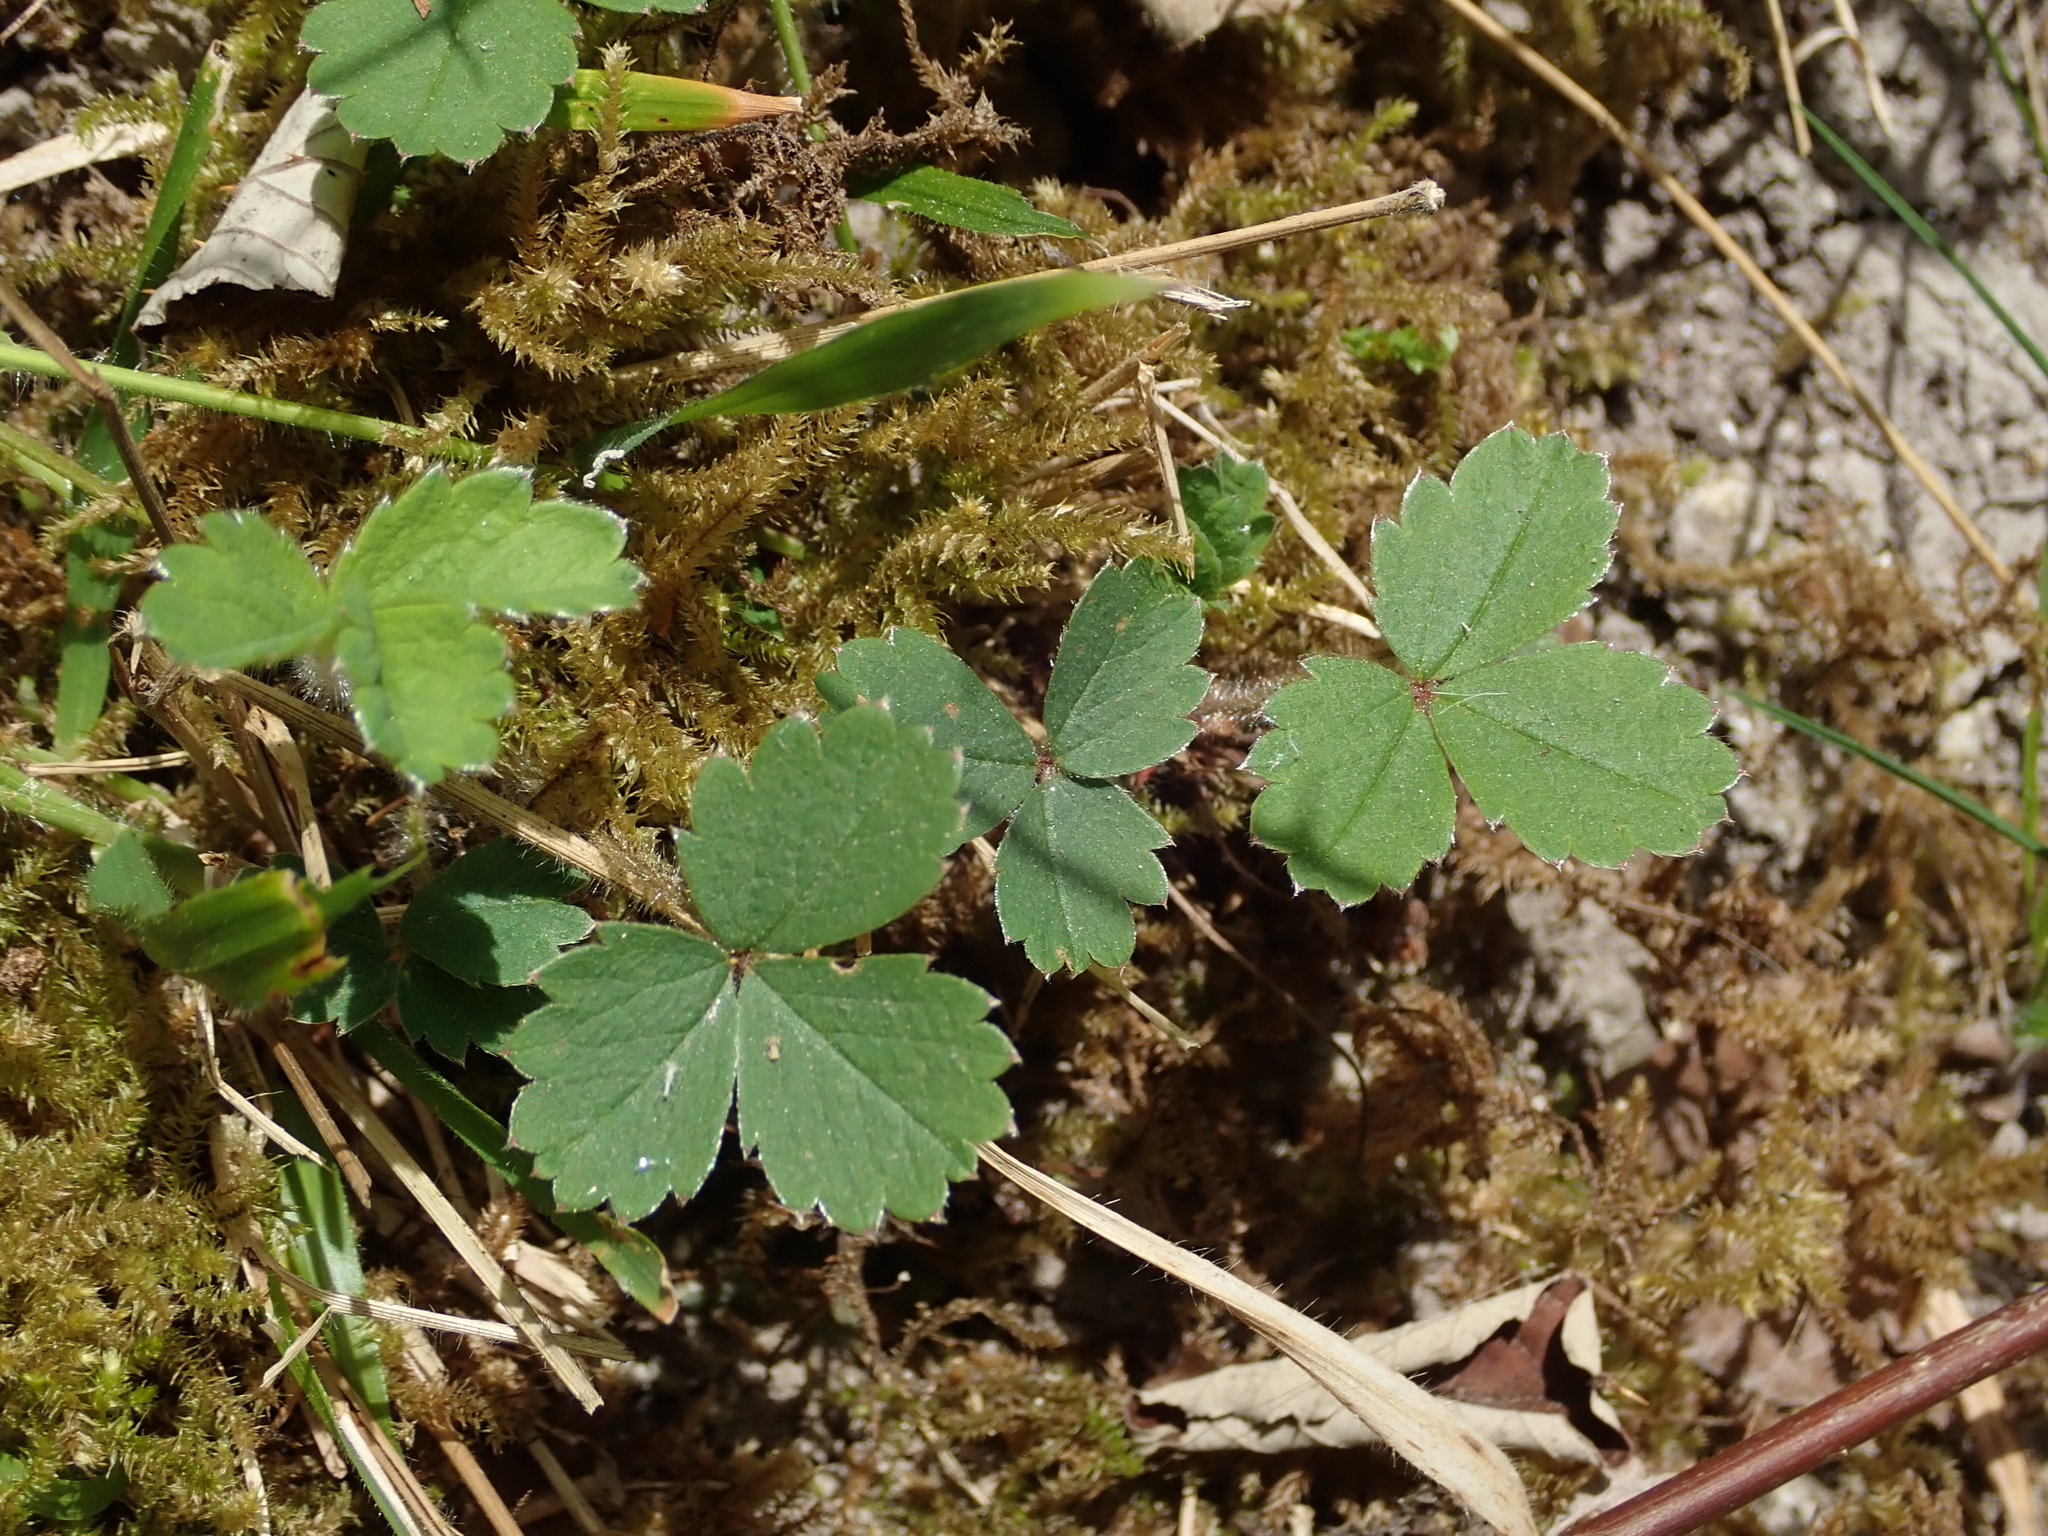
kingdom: Plantae
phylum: Tracheophyta
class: Magnoliopsida
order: Rosales
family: Rosaceae
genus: Potentilla
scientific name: Potentilla sterilis
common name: Barren strawberry
